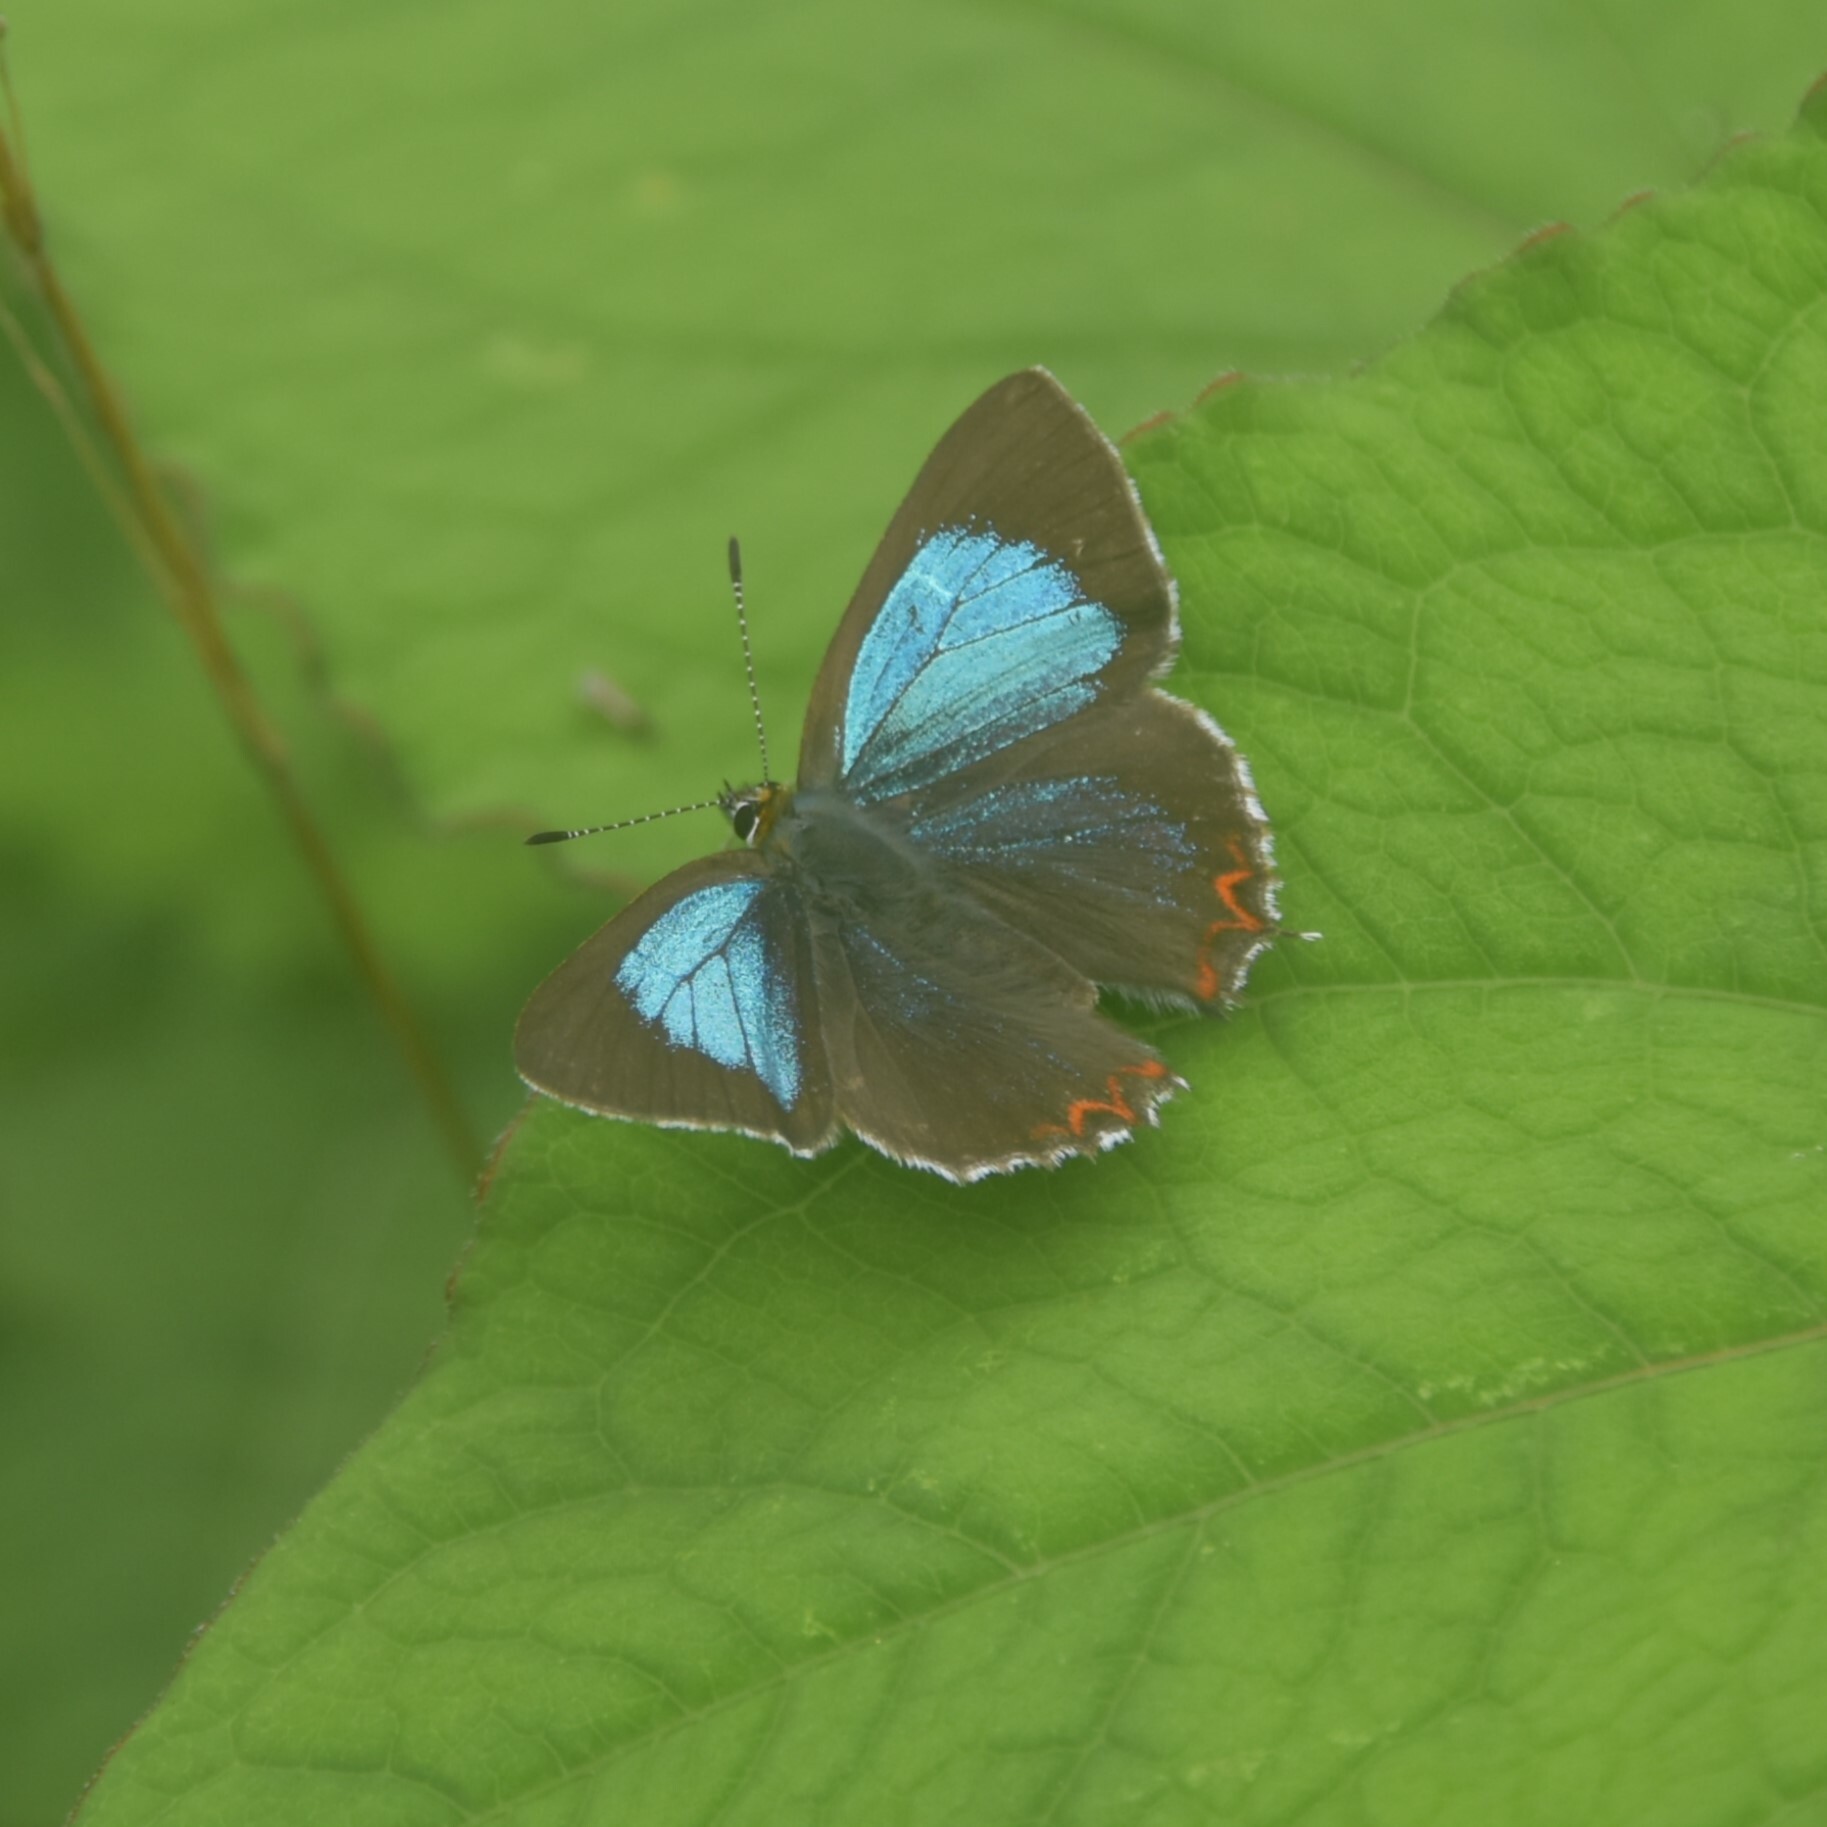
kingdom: Animalia
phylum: Arthropoda
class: Insecta
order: Lepidoptera
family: Lycaenidae
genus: Heliophorus
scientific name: Heliophorus
